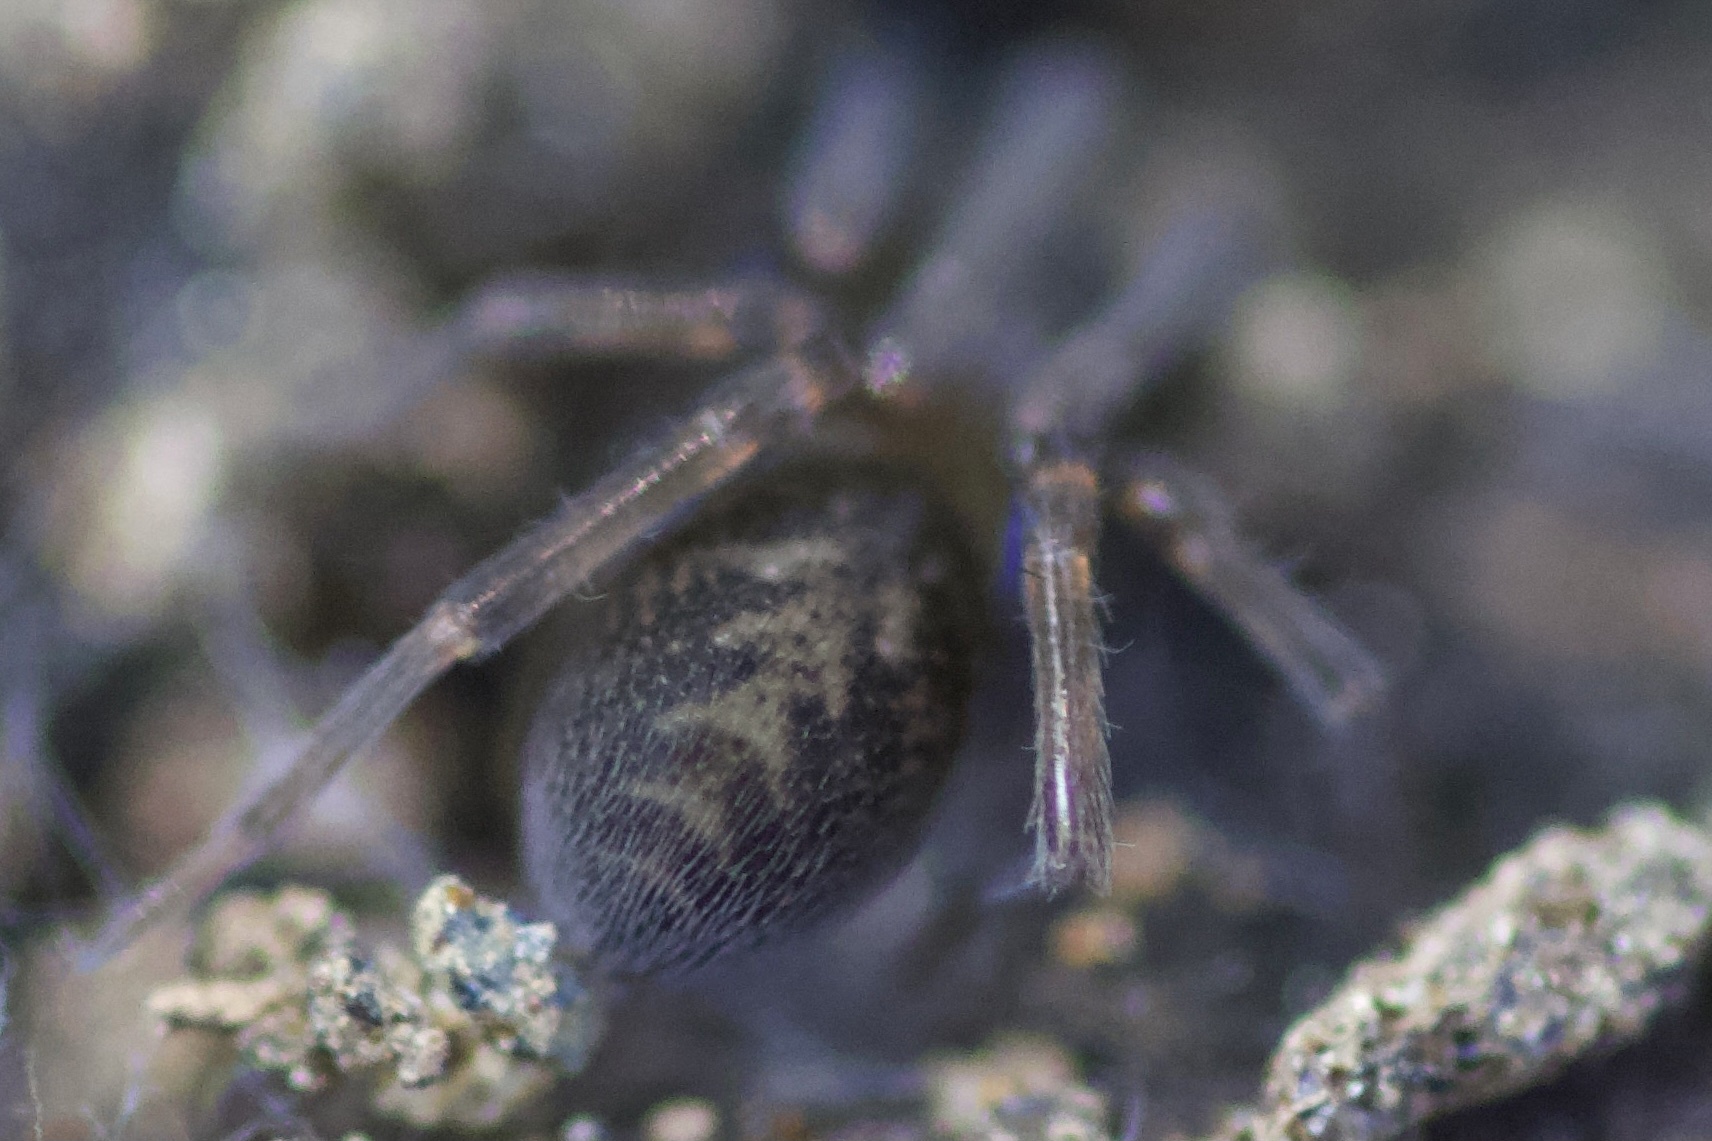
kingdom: Animalia
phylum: Arthropoda
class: Arachnida
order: Araneae
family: Desidae
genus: Metaltella
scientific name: Metaltella simoni
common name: Cribellate spider
